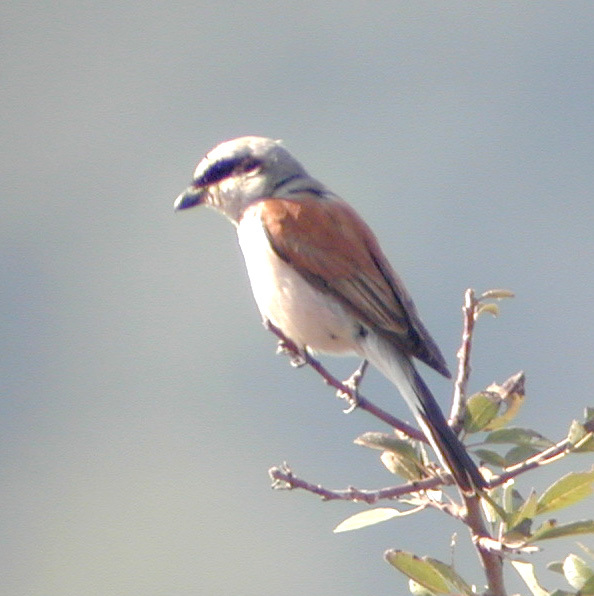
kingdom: Animalia
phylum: Chordata
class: Aves
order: Passeriformes
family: Laniidae
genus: Lanius
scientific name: Lanius collurio
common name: Red-backed shrike
